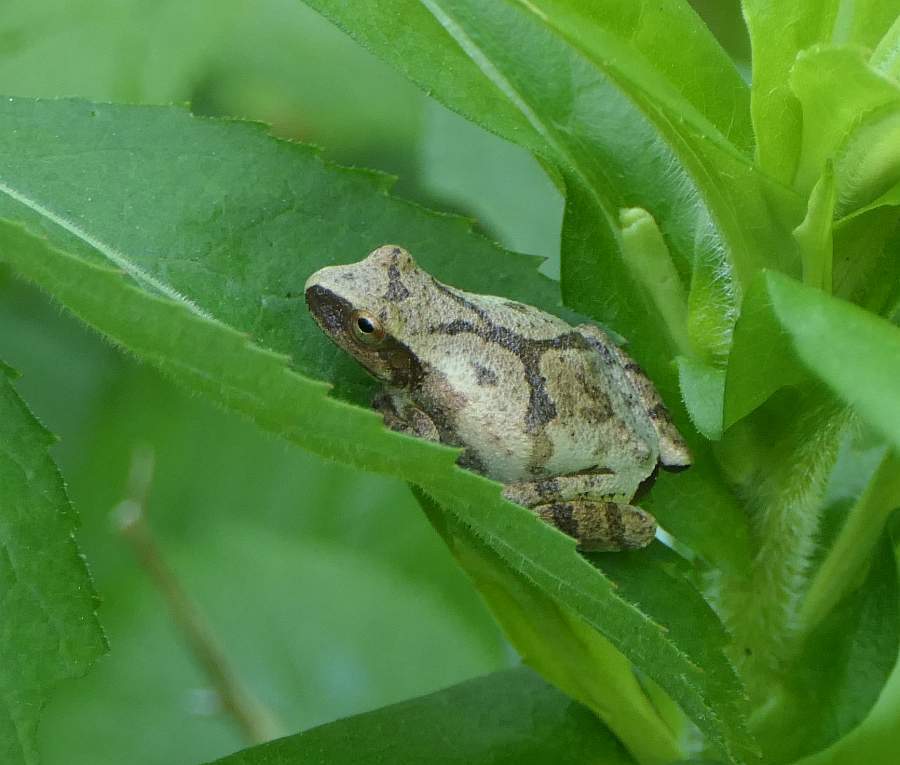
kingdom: Animalia
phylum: Chordata
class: Amphibia
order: Anura
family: Hylidae
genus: Pseudacris
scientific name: Pseudacris crucifer
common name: Spring peeper
